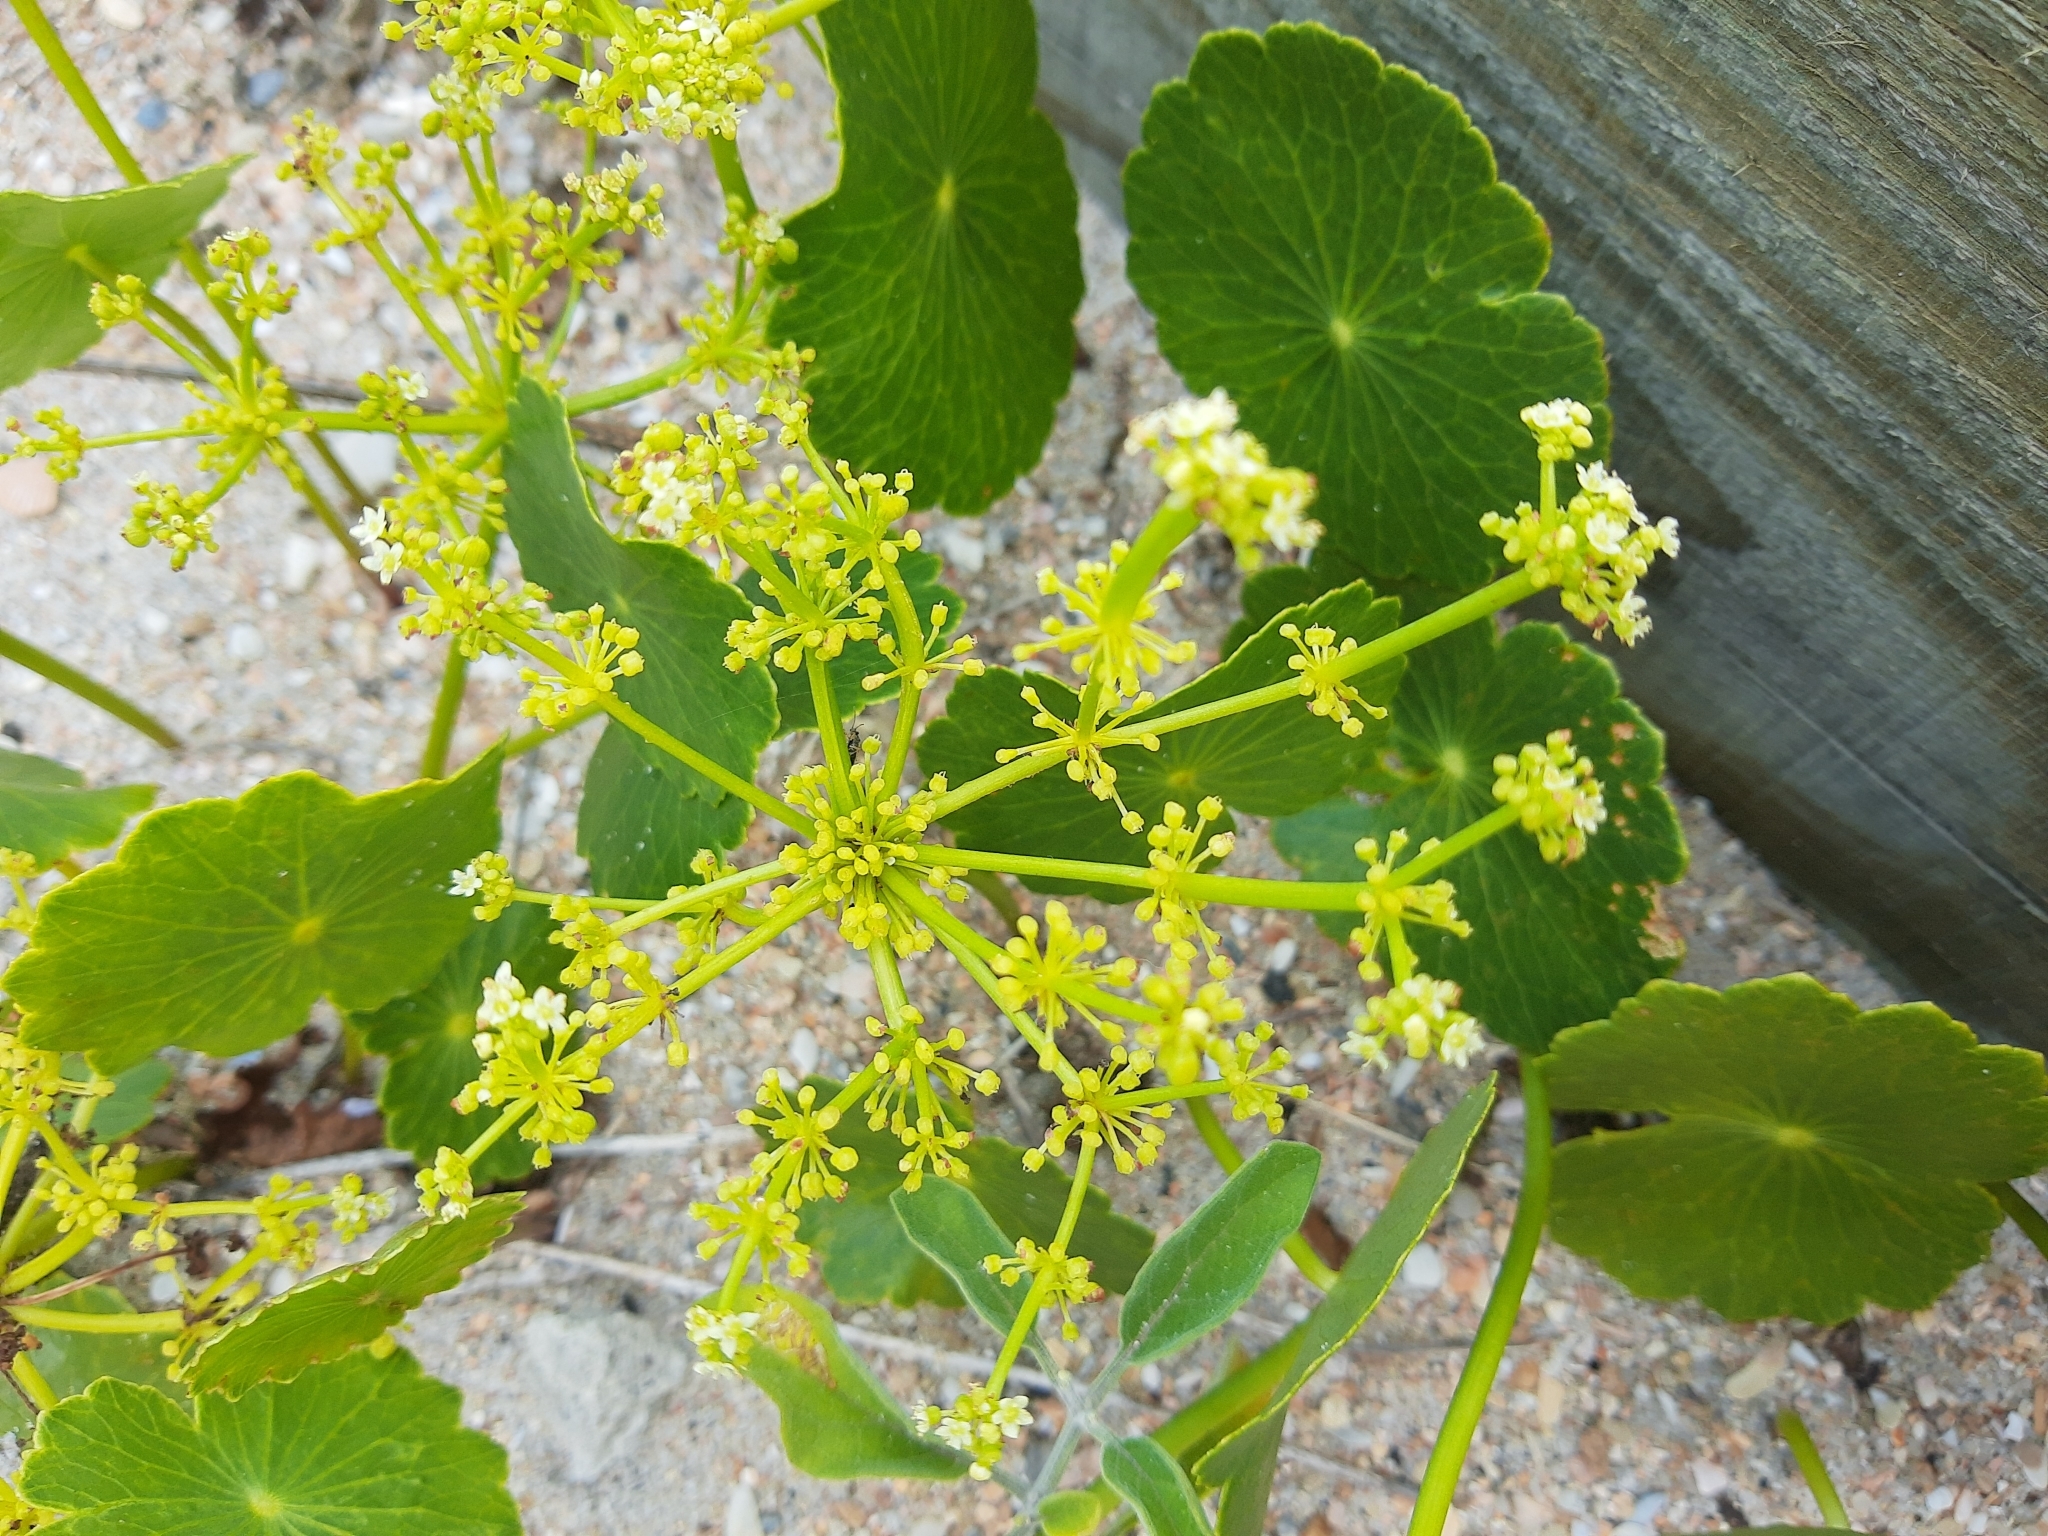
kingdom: Plantae
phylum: Tracheophyta
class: Magnoliopsida
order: Apiales
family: Araliaceae
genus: Hydrocotyle
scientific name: Hydrocotyle bonariensis
